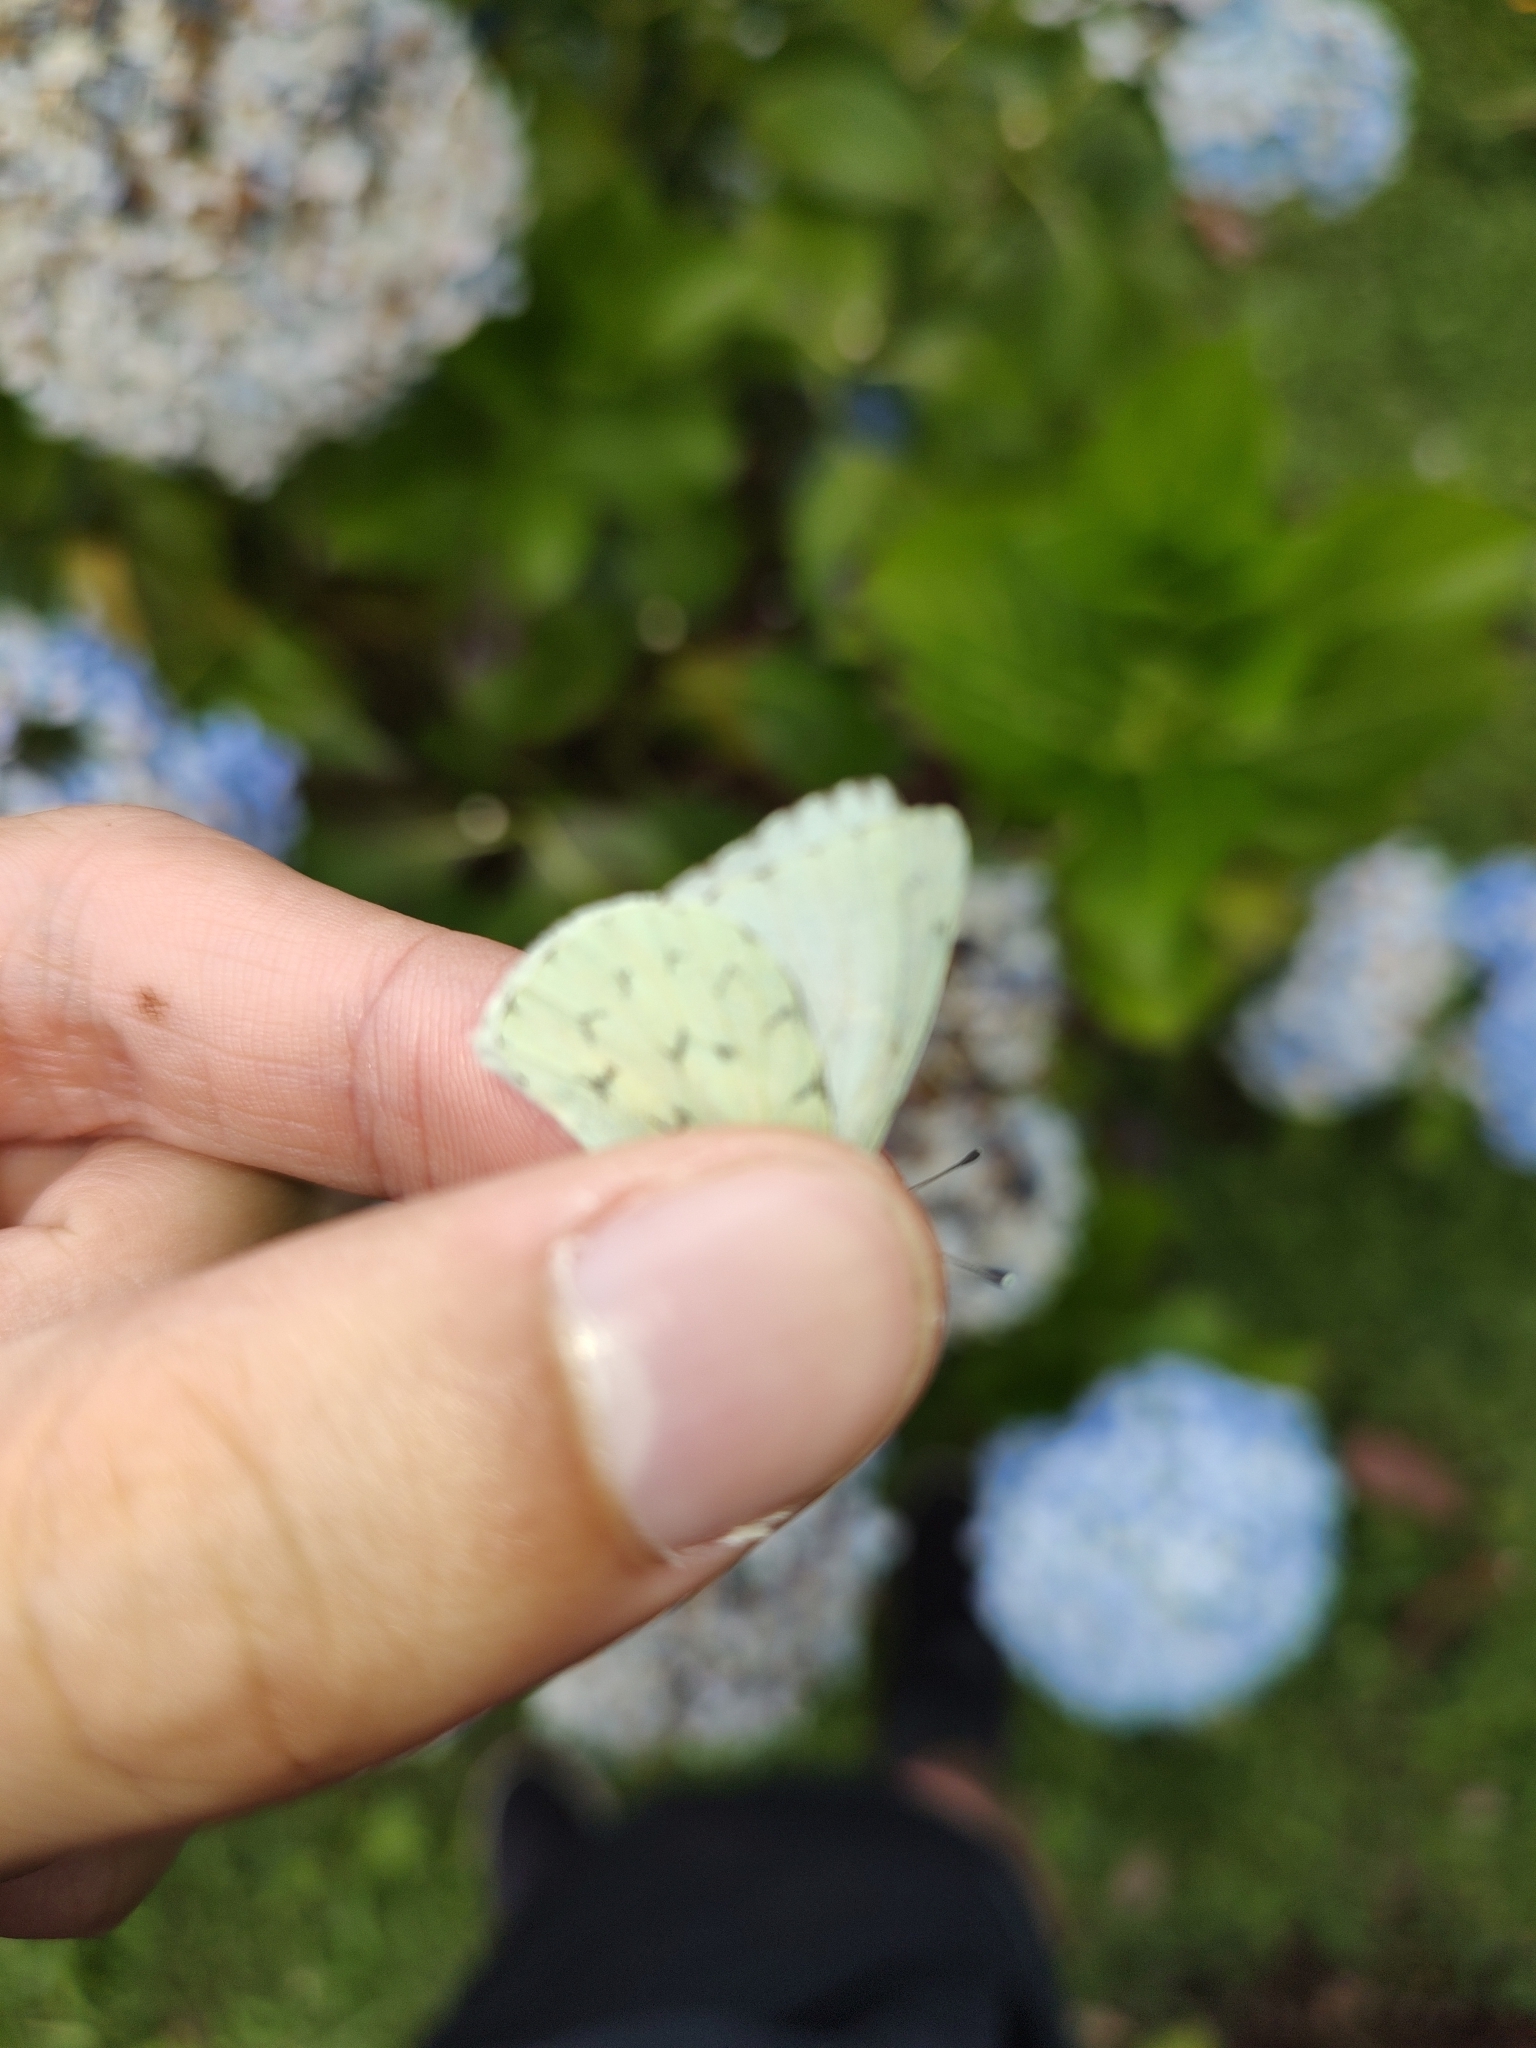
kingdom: Animalia
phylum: Arthropoda
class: Insecta
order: Lepidoptera
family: Pieridae
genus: Hesperocharis
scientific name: Hesperocharis paranensis
